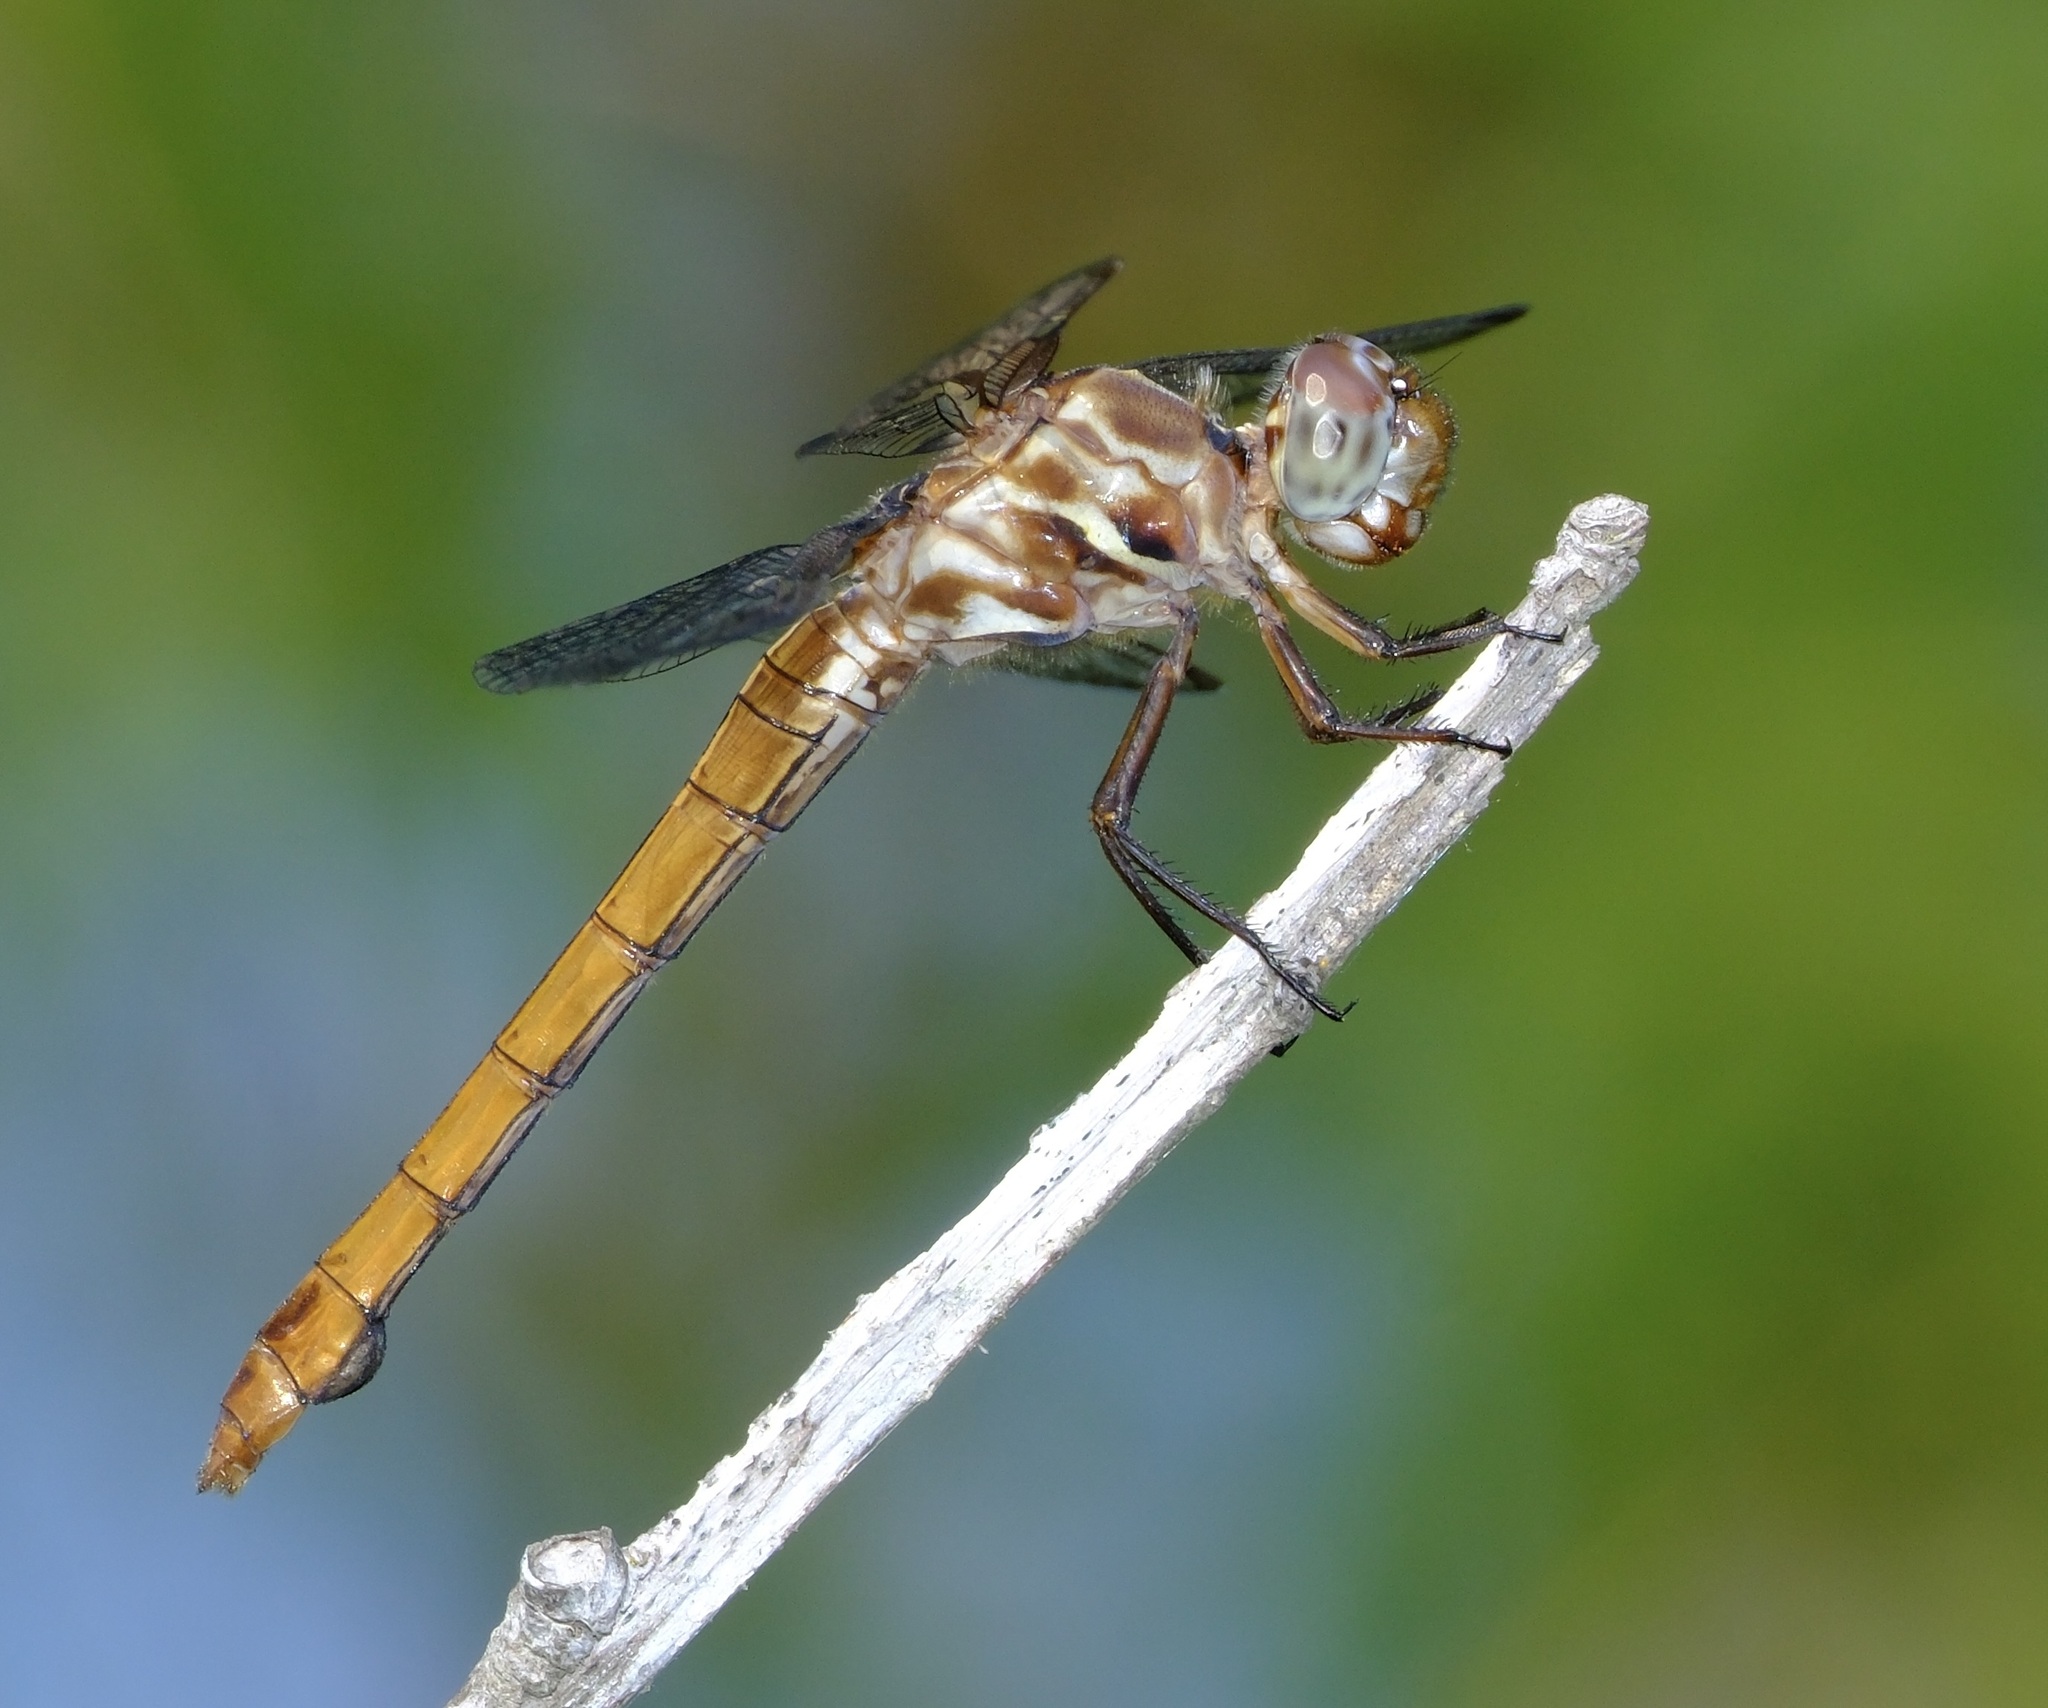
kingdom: Animalia
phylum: Arthropoda
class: Insecta
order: Odonata
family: Libellulidae
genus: Orthemis
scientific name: Orthemis ferruginea
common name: Roseate skimmer
